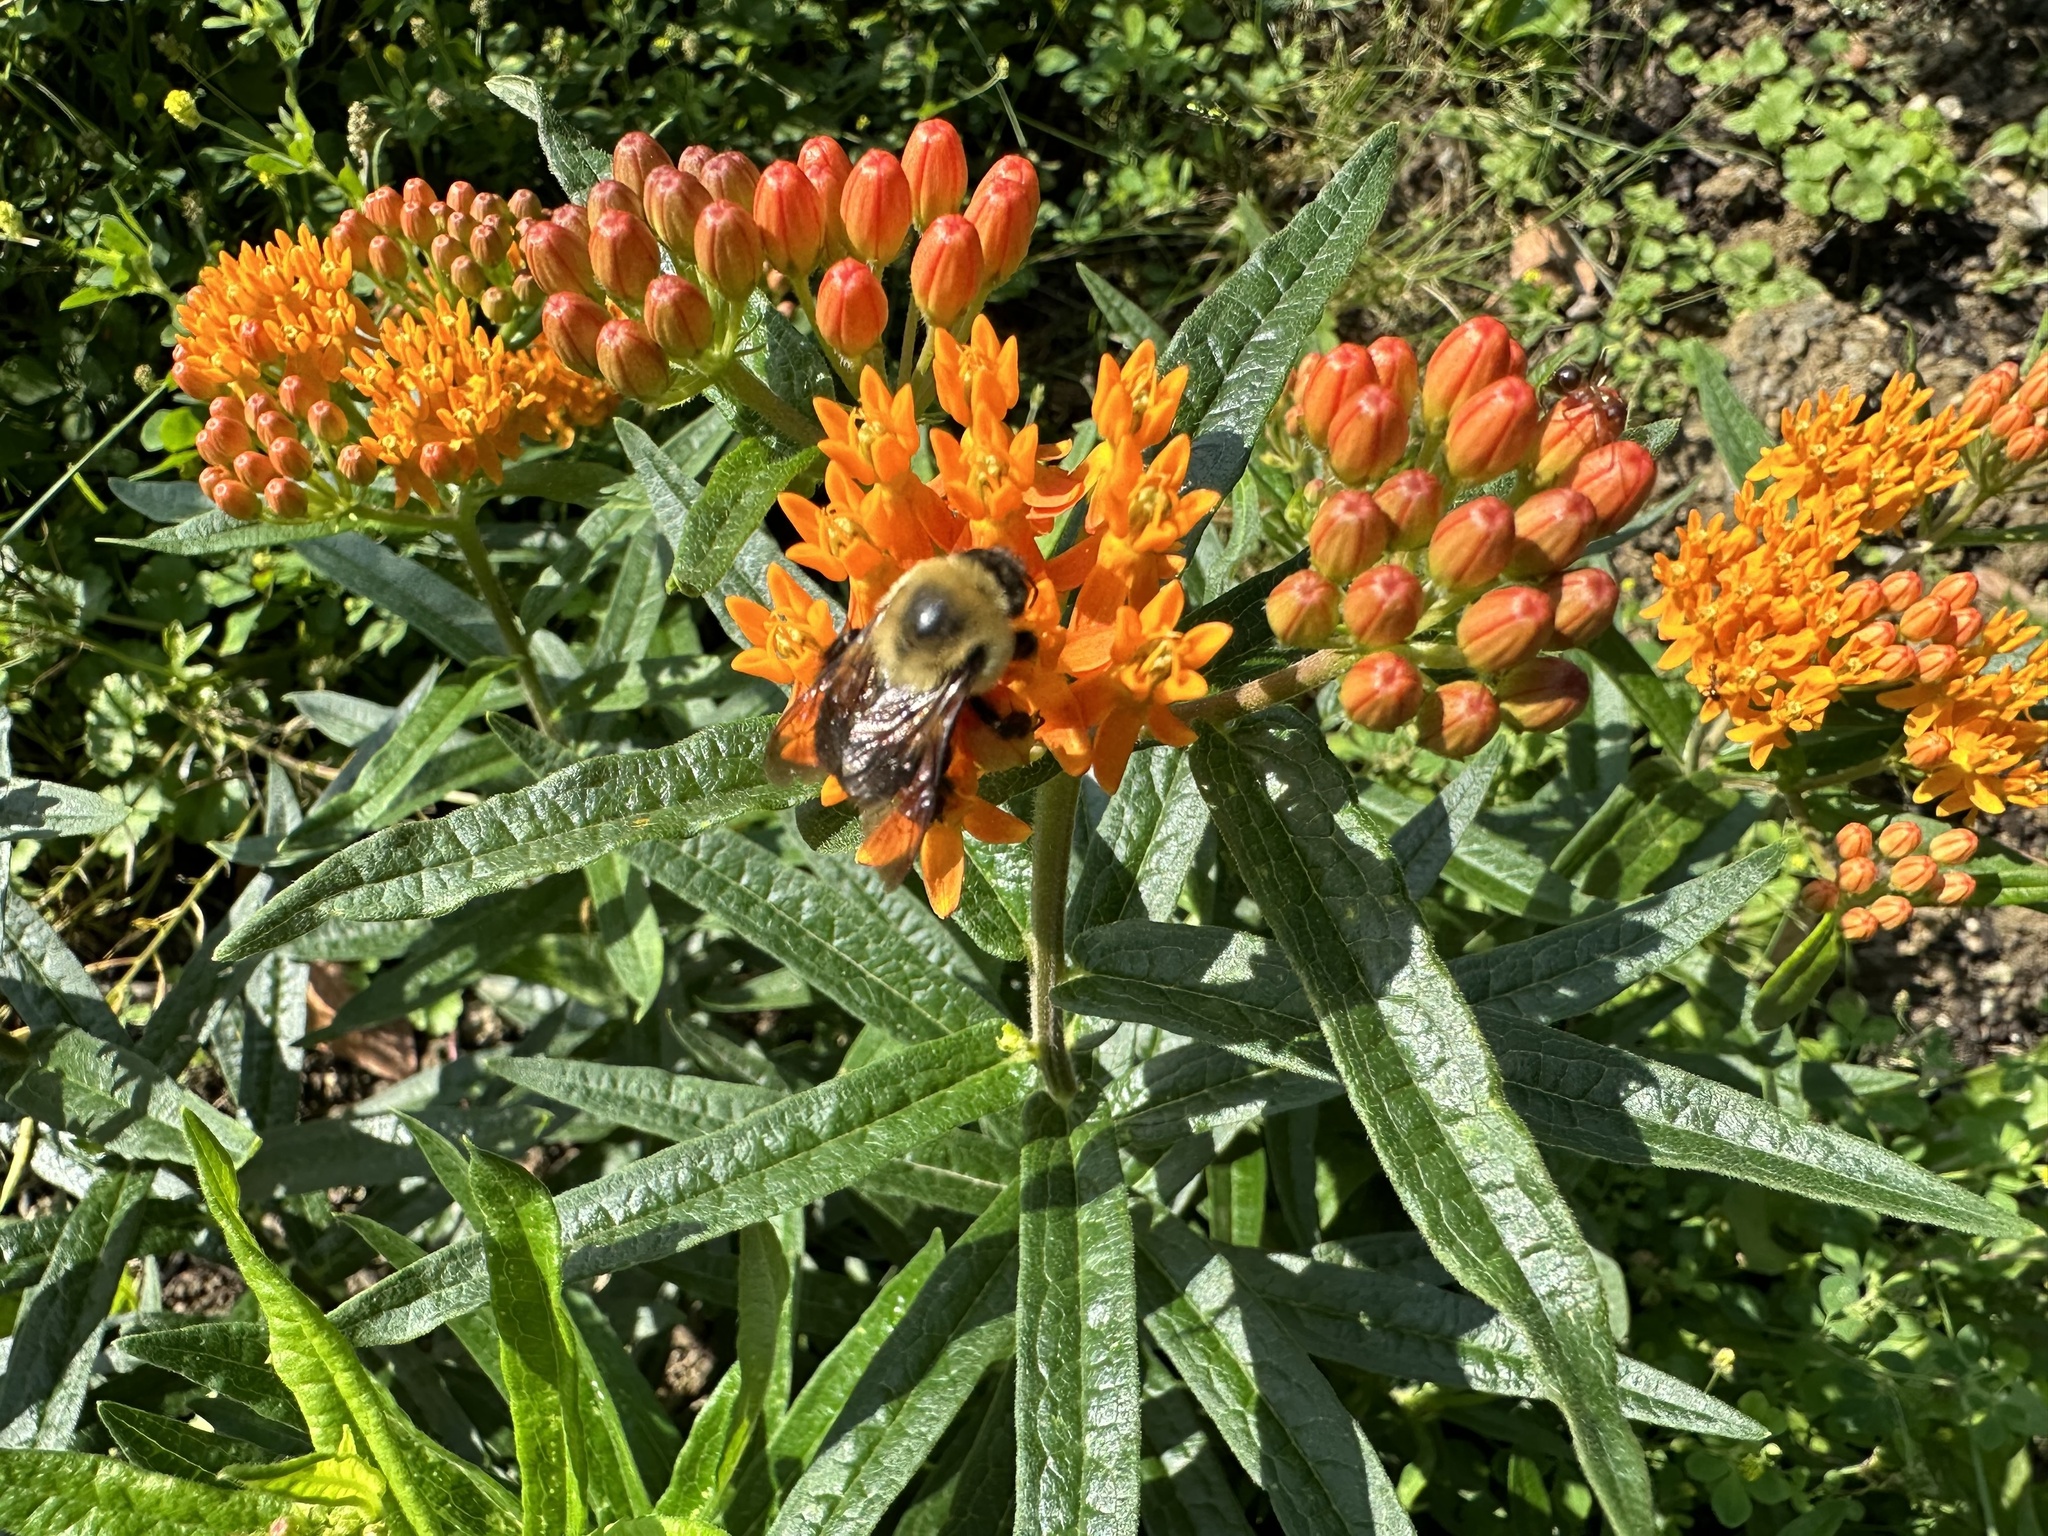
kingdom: Animalia
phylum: Arthropoda
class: Insecta
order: Hymenoptera
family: Apidae
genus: Bombus
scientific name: Bombus griseocollis
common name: Brown-belted bumble bee
